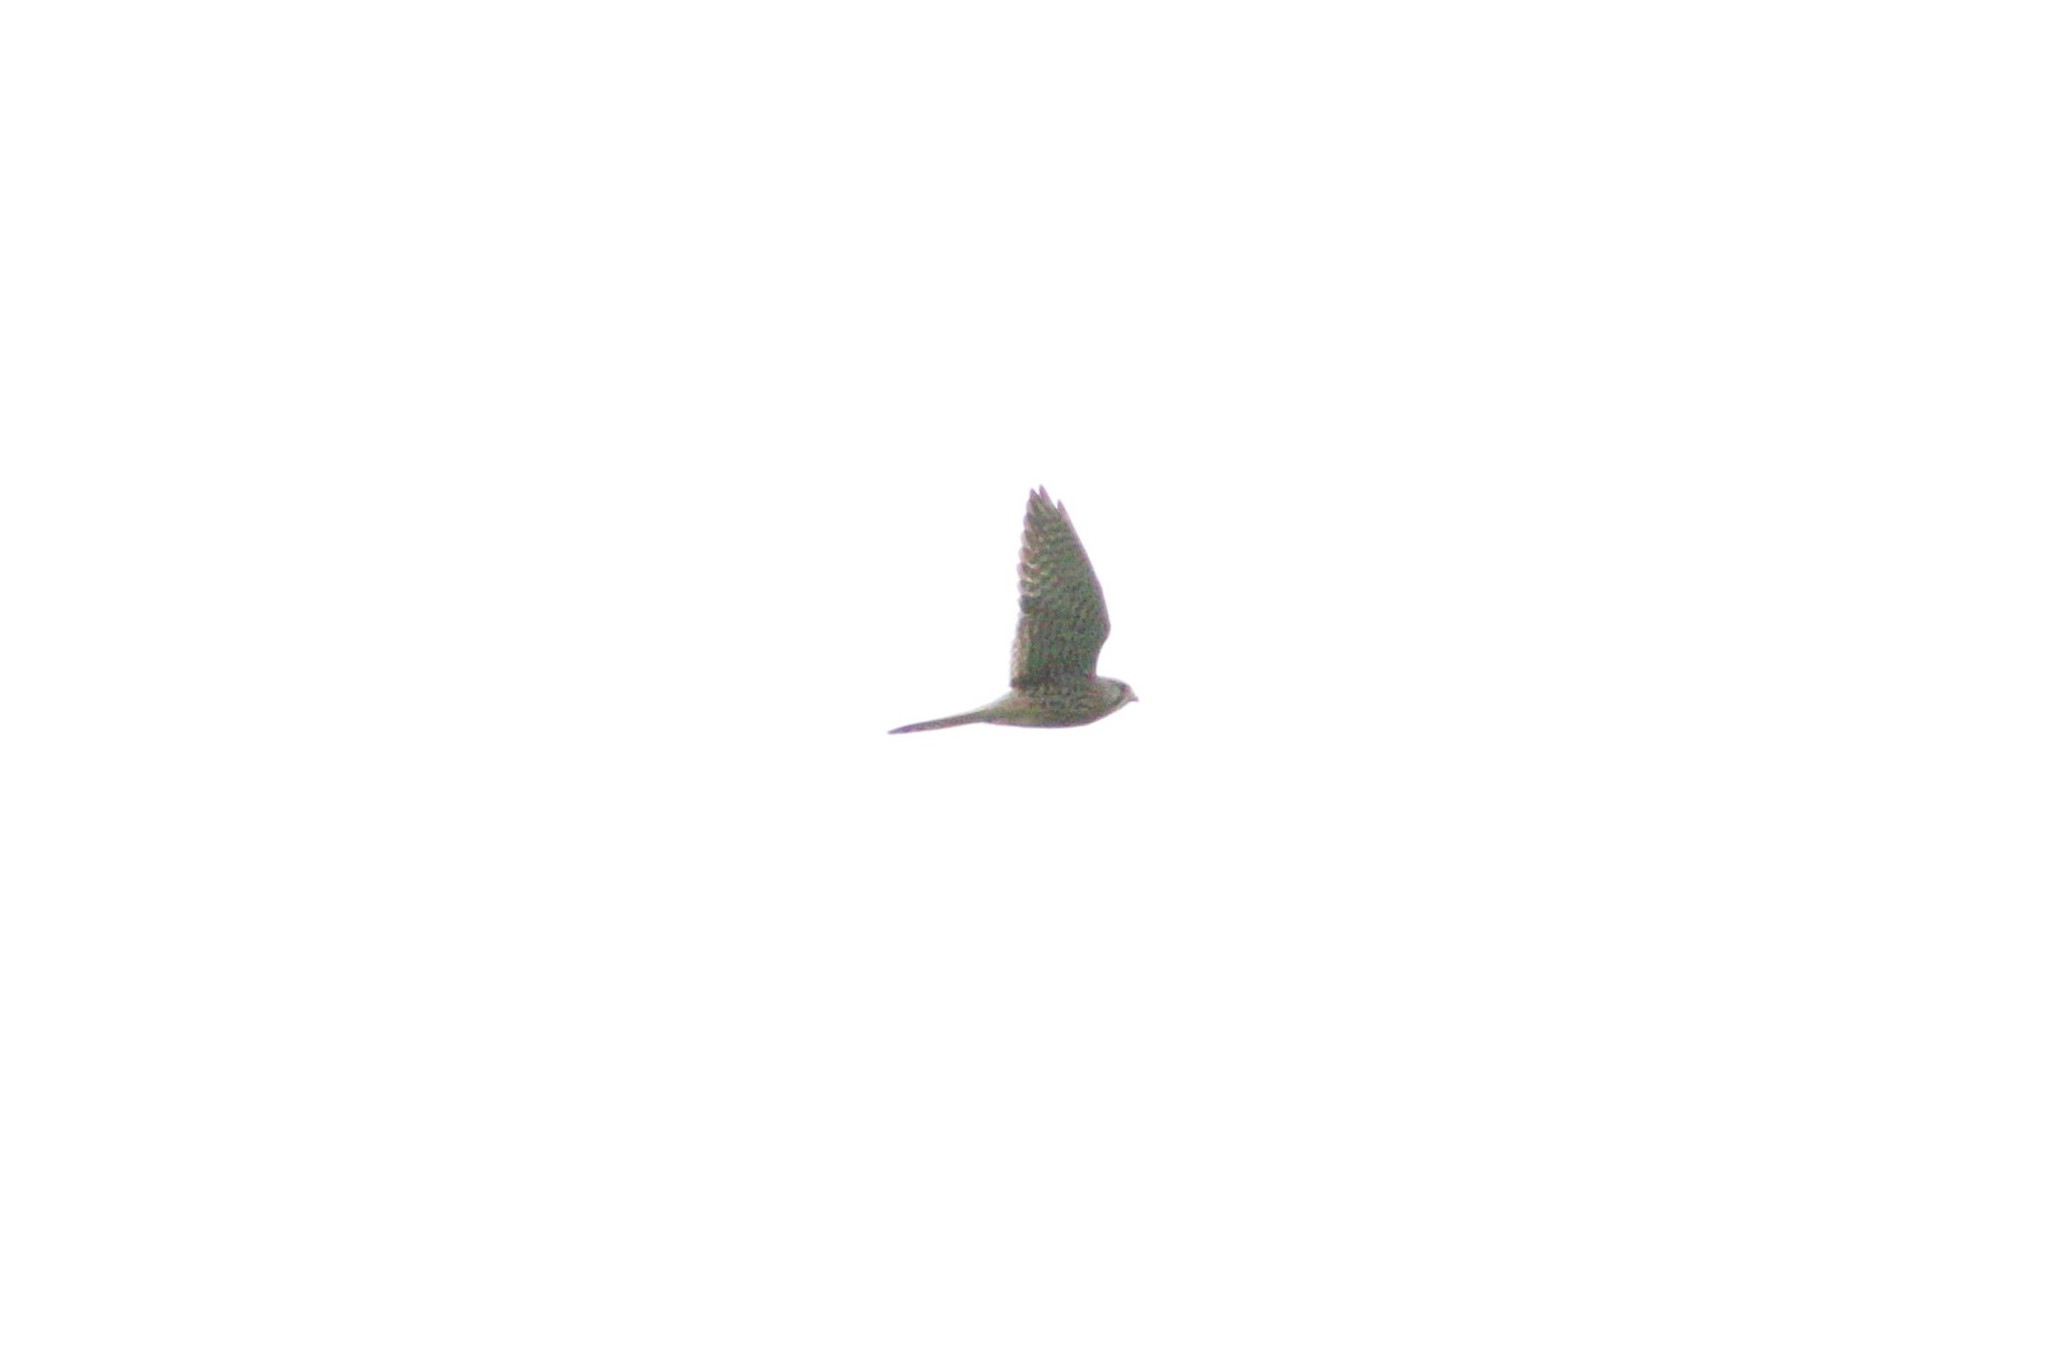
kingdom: Animalia
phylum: Chordata
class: Aves
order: Falconiformes
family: Falconidae
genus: Falco
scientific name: Falco tinnunculus
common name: Common kestrel
